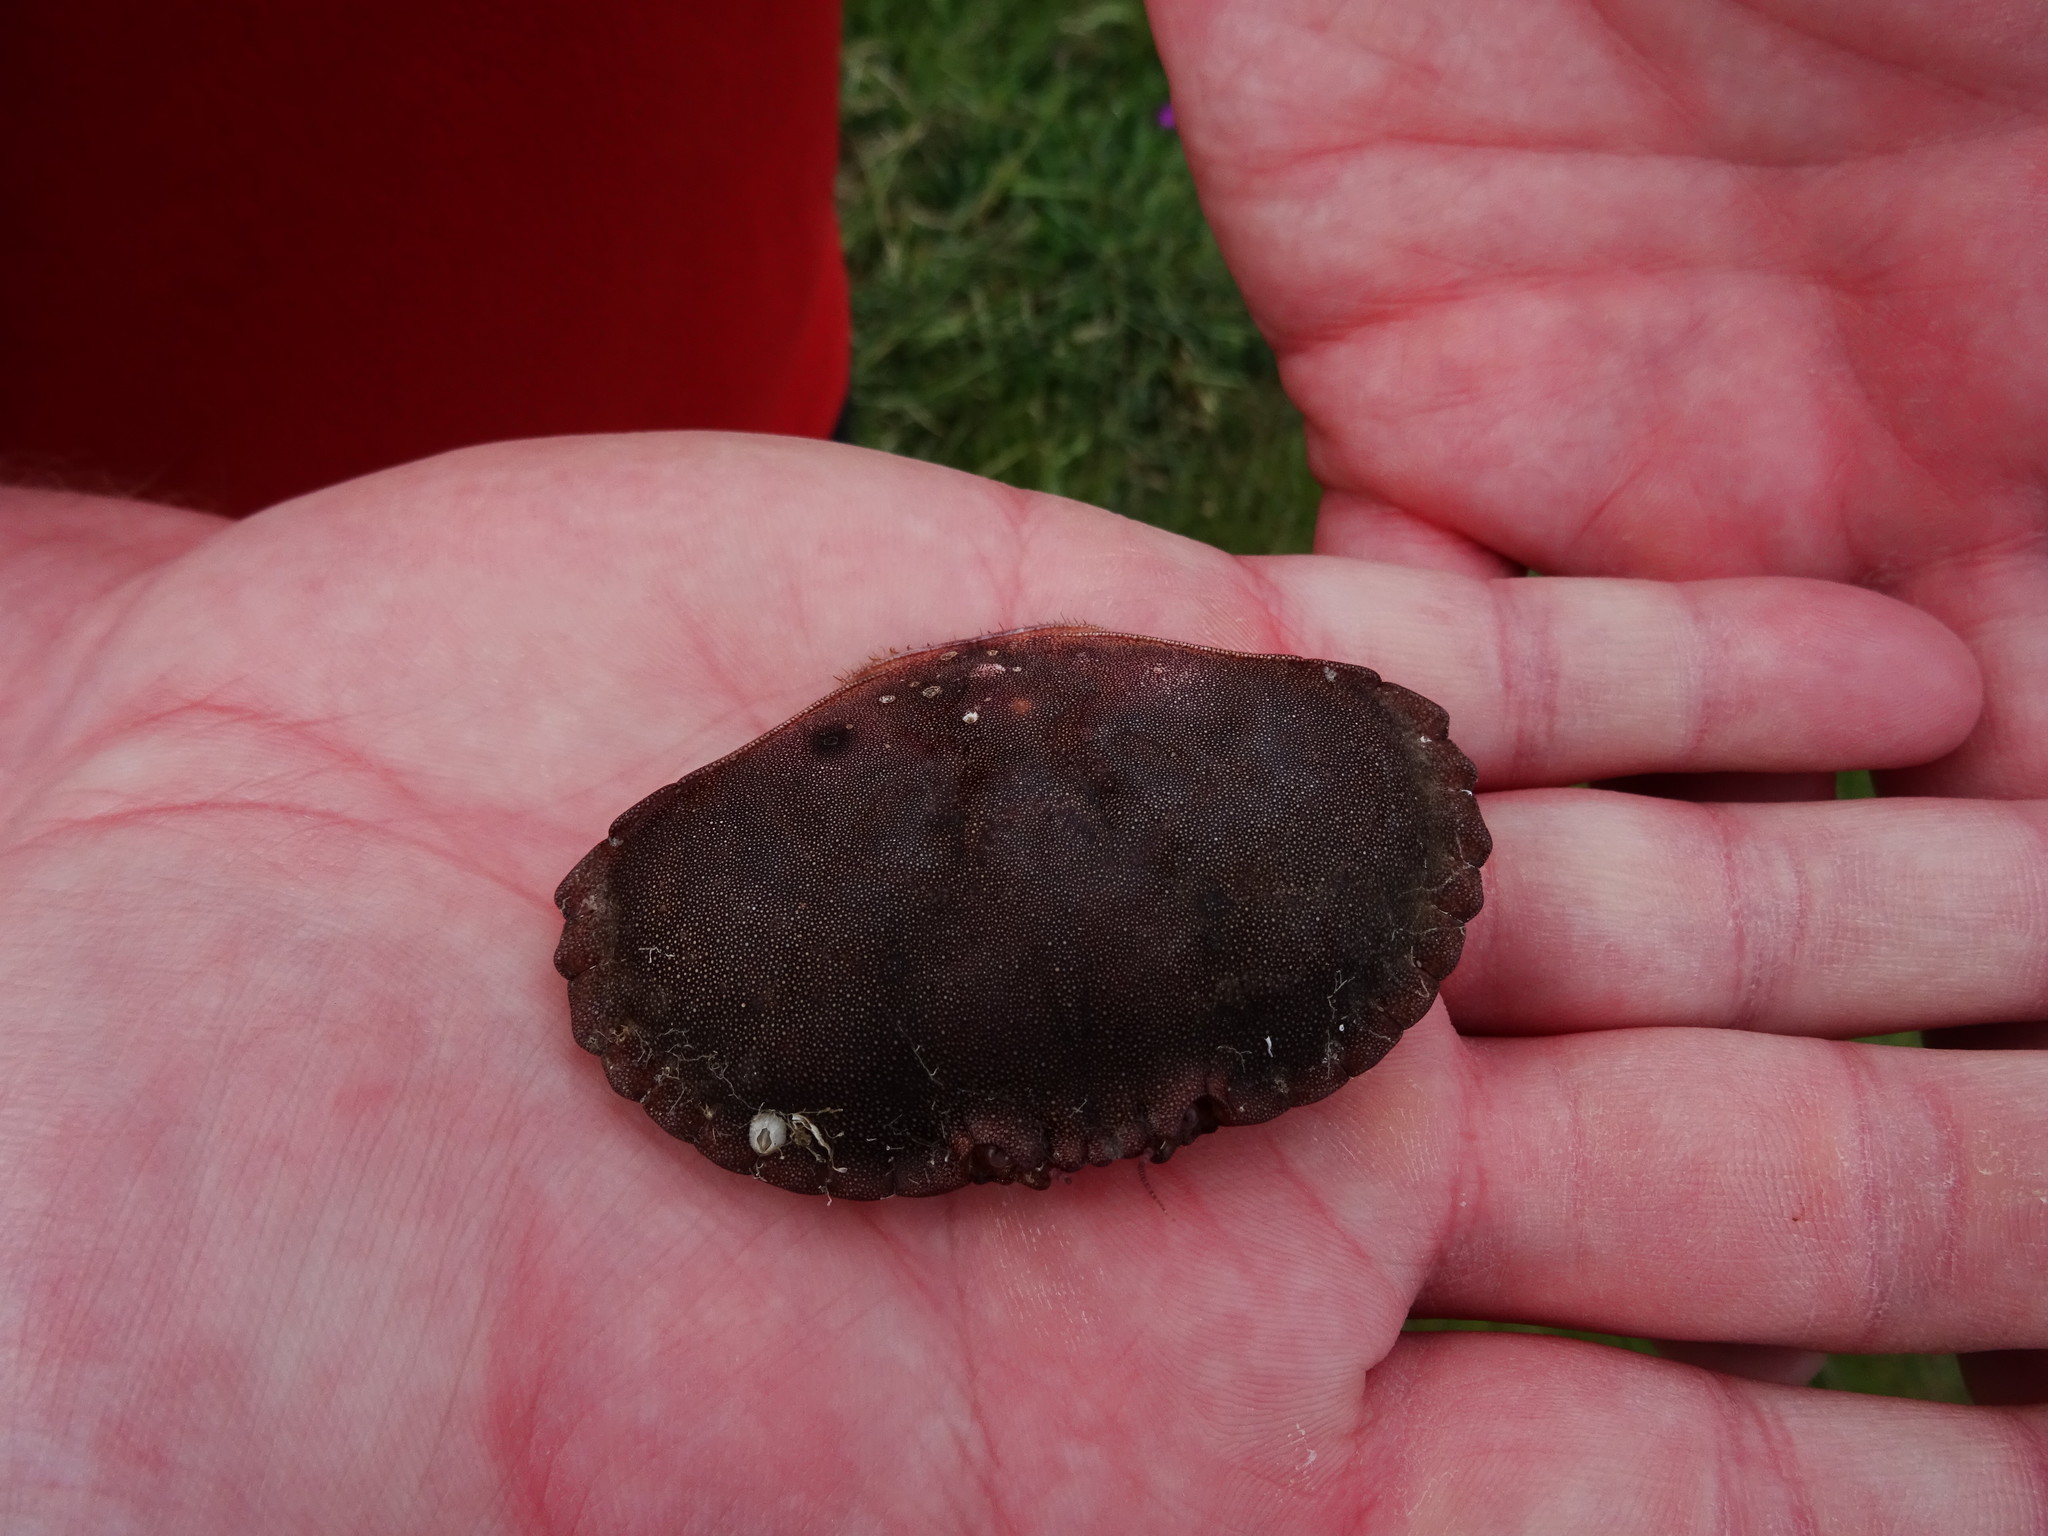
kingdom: Animalia
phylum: Arthropoda
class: Malacostraca
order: Decapoda
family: Cancridae
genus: Cancer
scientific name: Cancer pagurus
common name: Edible crab
